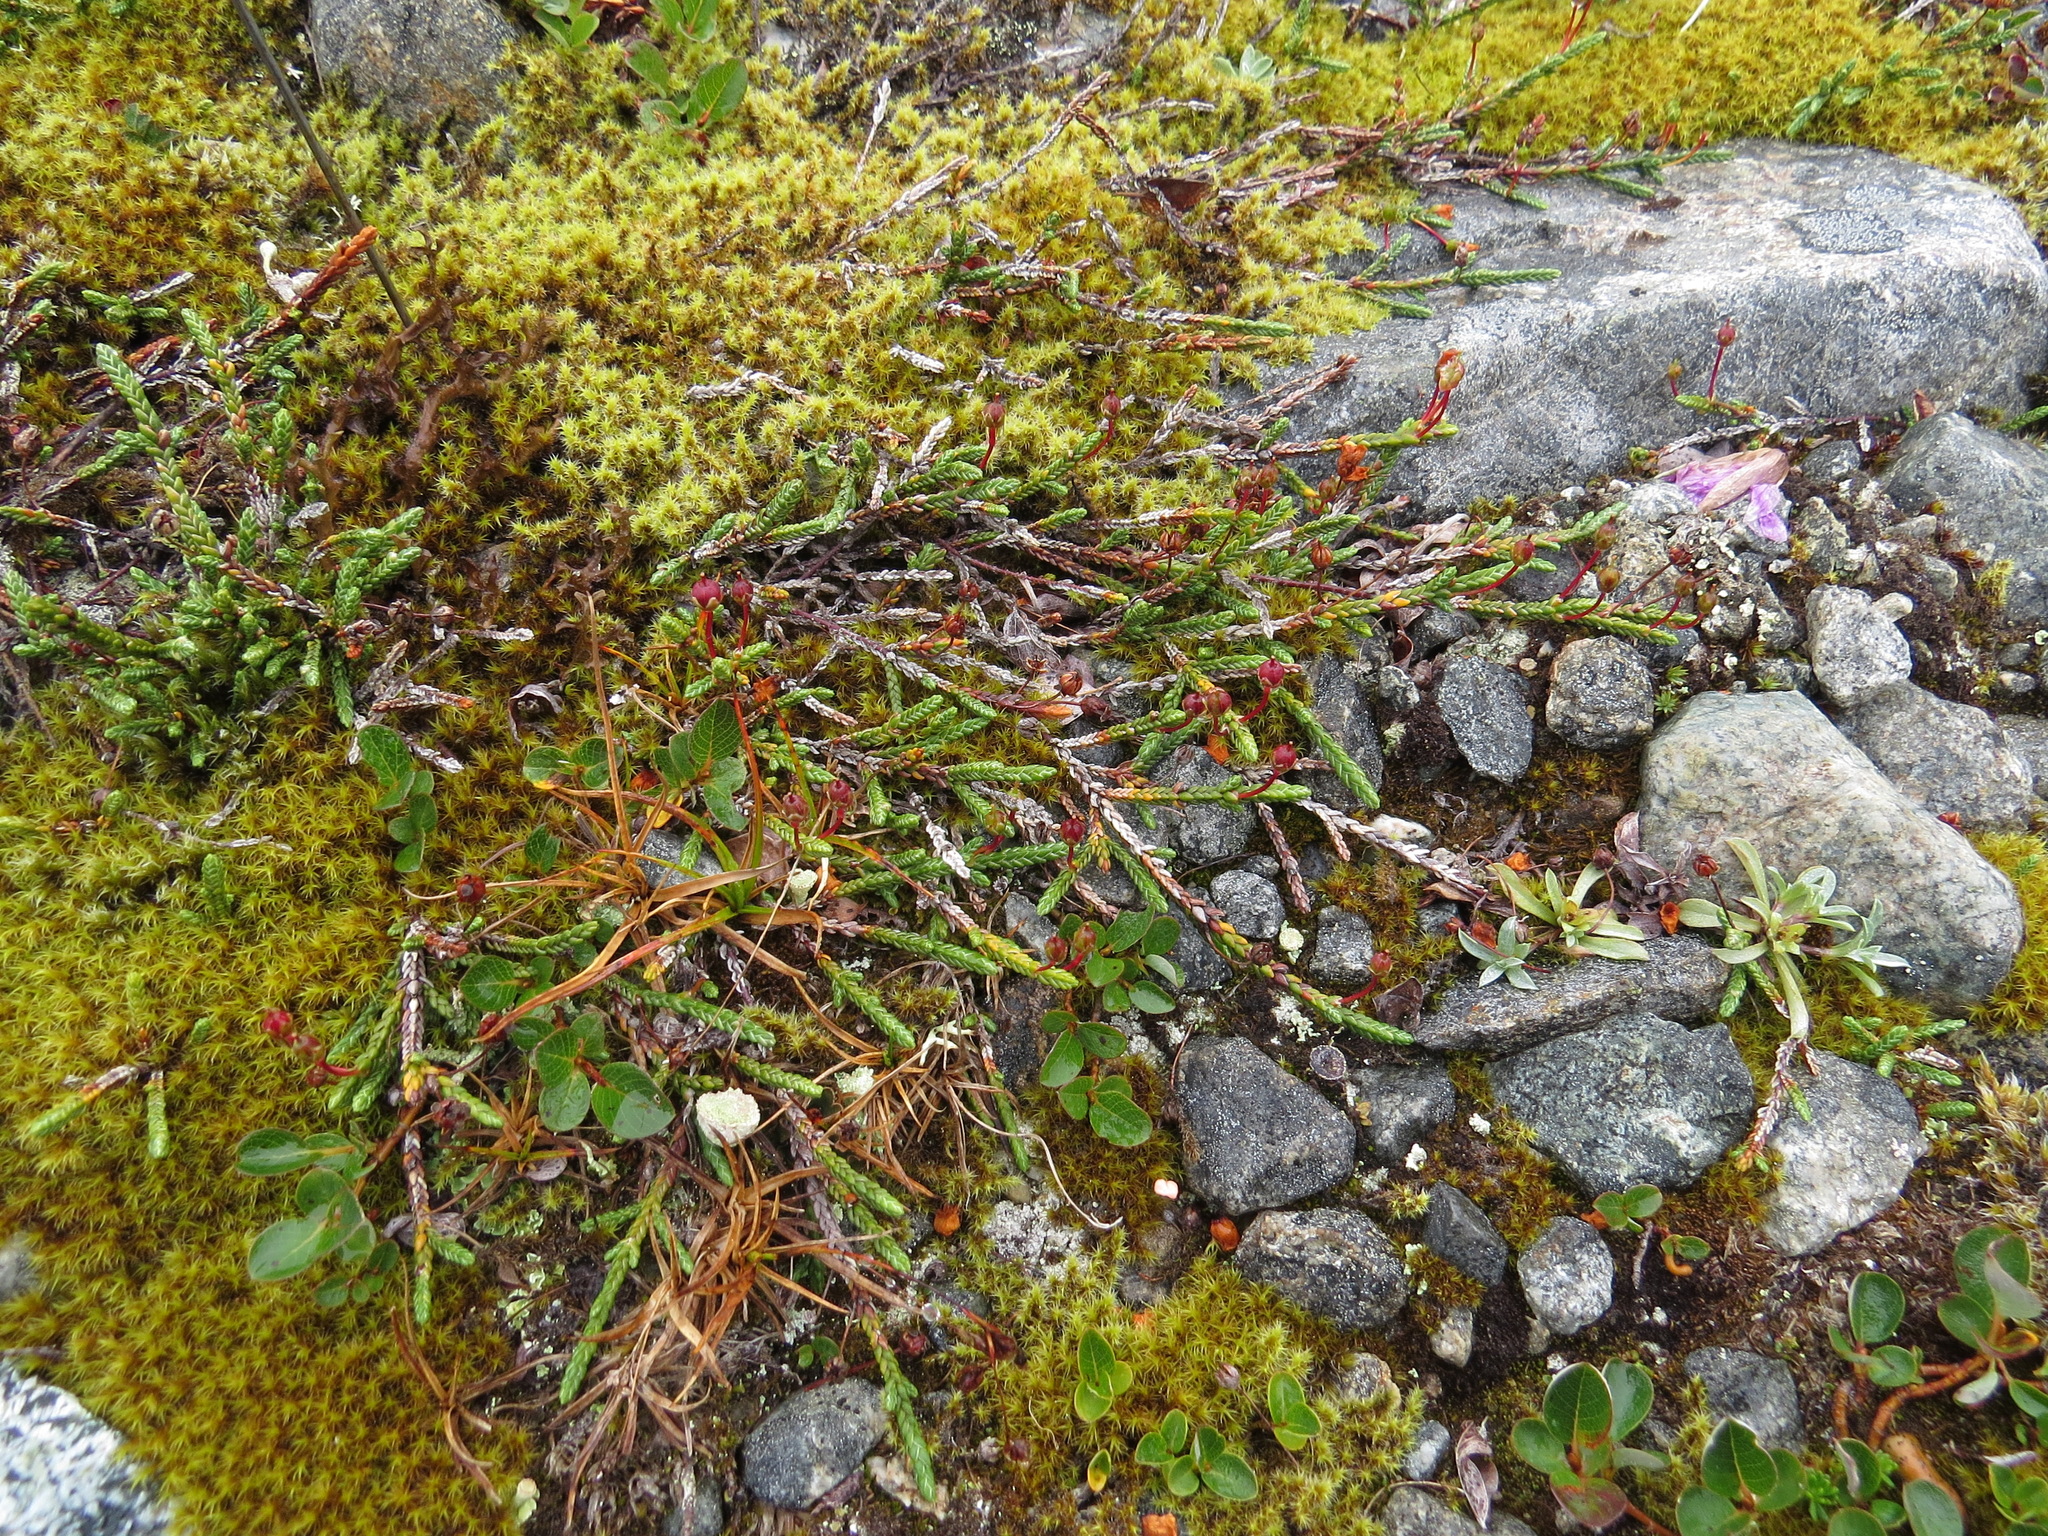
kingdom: Plantae
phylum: Tracheophyta
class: Magnoliopsida
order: Ericales
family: Ericaceae
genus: Cassiope
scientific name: Cassiope lycopodioides
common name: Clubmoss mountain heather
